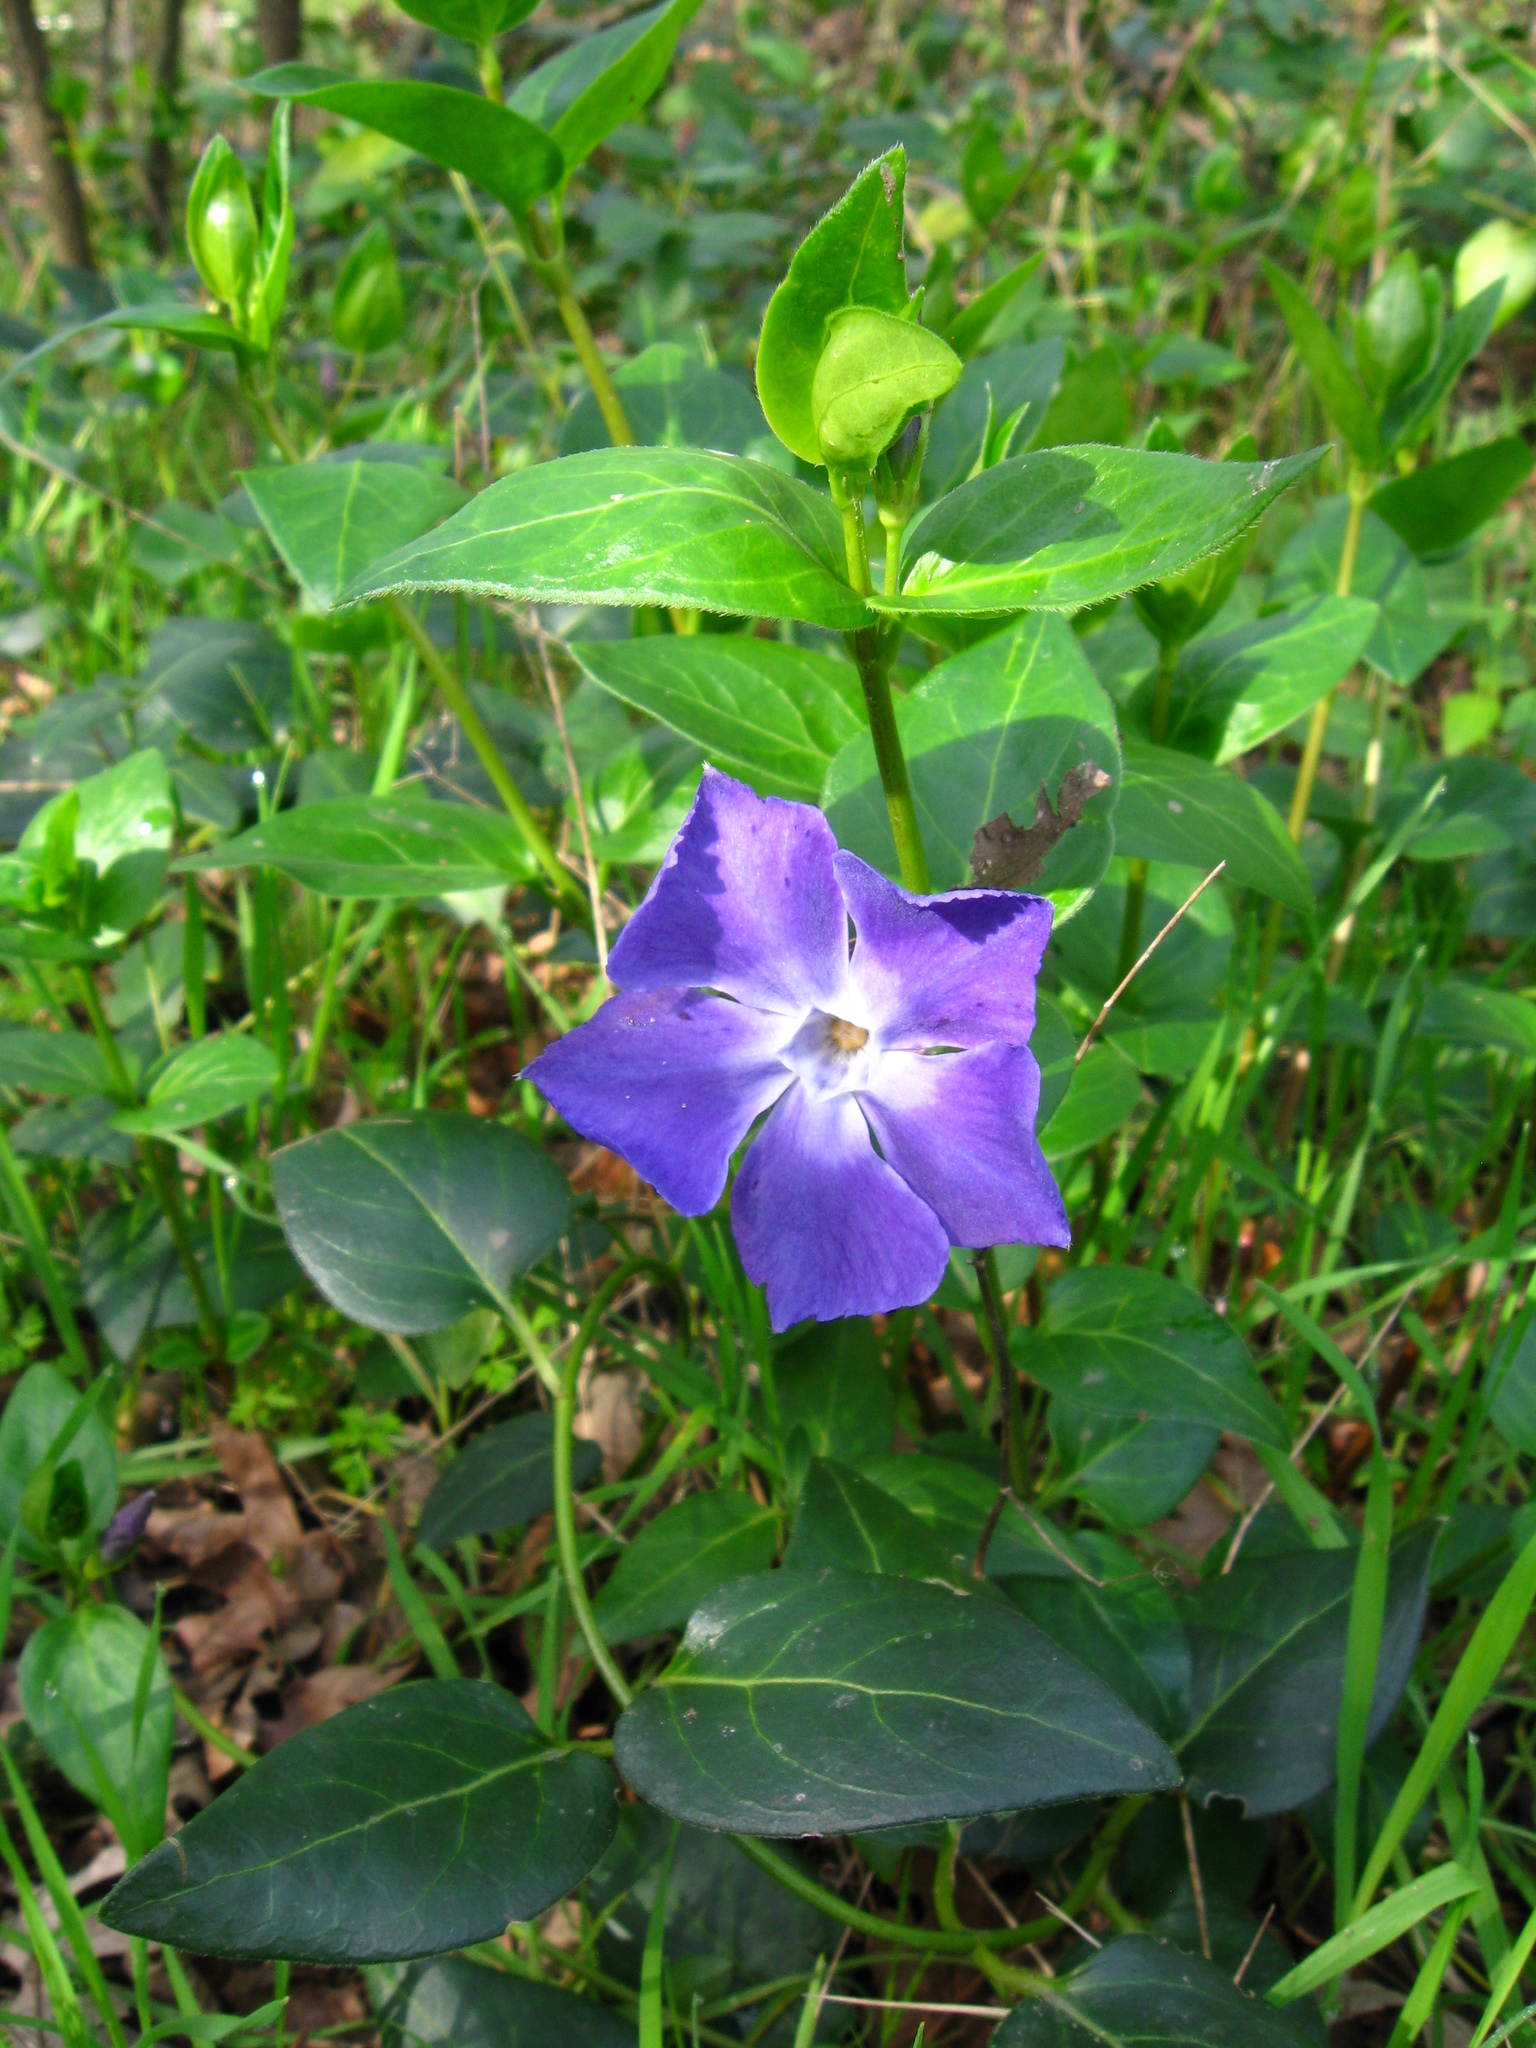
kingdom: Plantae
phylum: Tracheophyta
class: Magnoliopsida
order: Gentianales
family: Apocynaceae
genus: Vinca
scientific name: Vinca major
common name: Greater periwinkle
